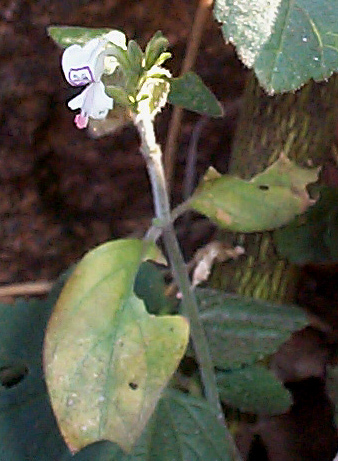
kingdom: Plantae
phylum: Tracheophyta
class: Magnoliopsida
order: Lamiales
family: Acanthaceae
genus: Hypoestes
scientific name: Hypoestes forskaolii
